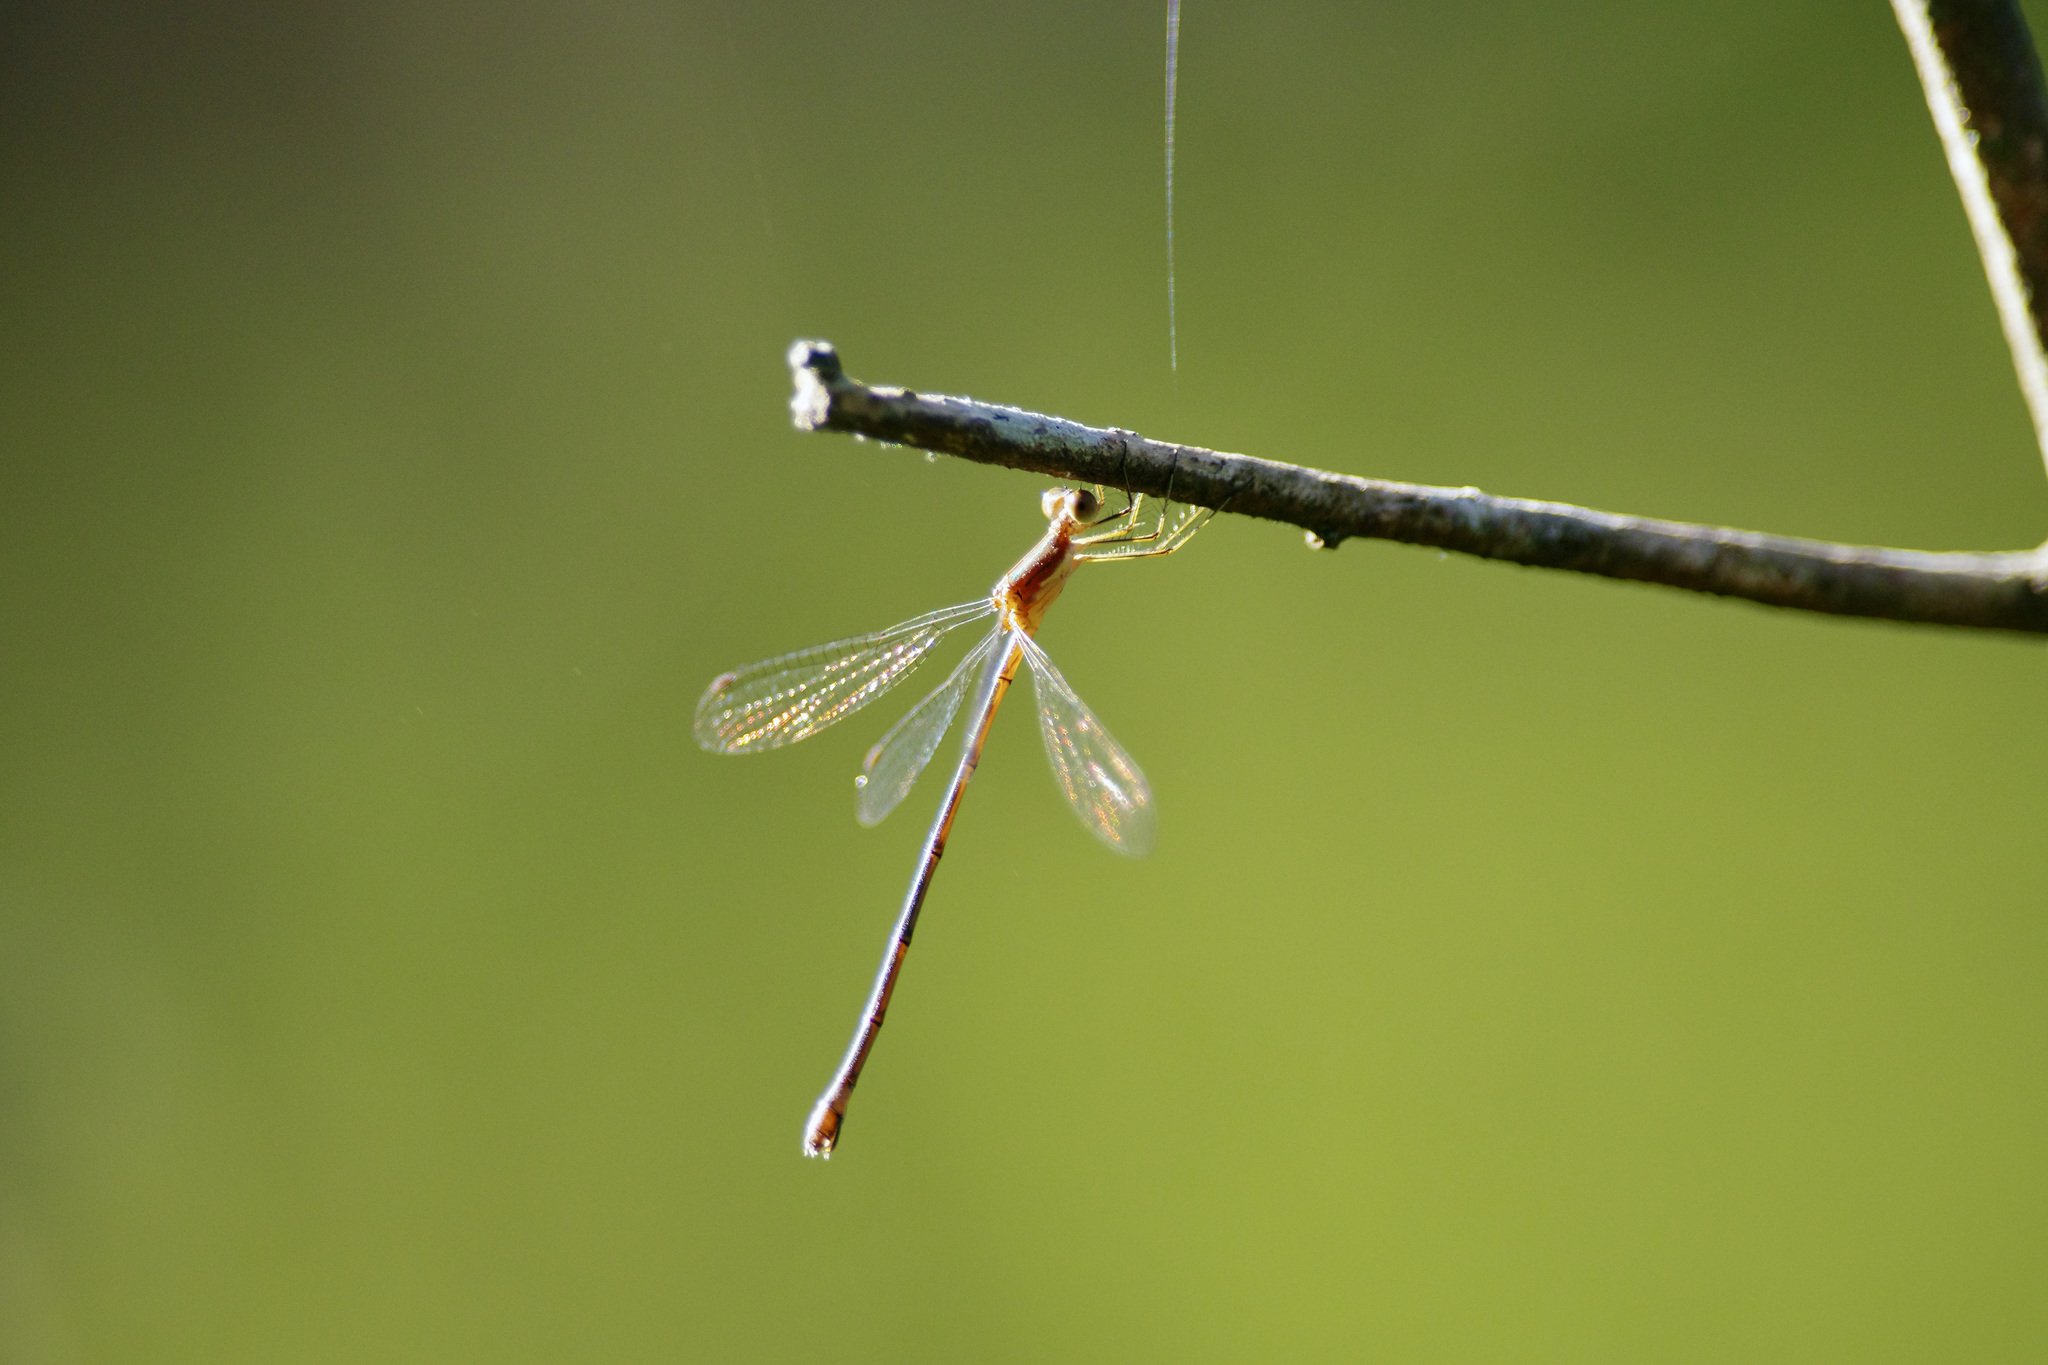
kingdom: Animalia
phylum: Arthropoda
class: Insecta
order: Odonata
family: Lestidae
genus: Lestes
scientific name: Lestes forficula
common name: Rainpool spreadwing
